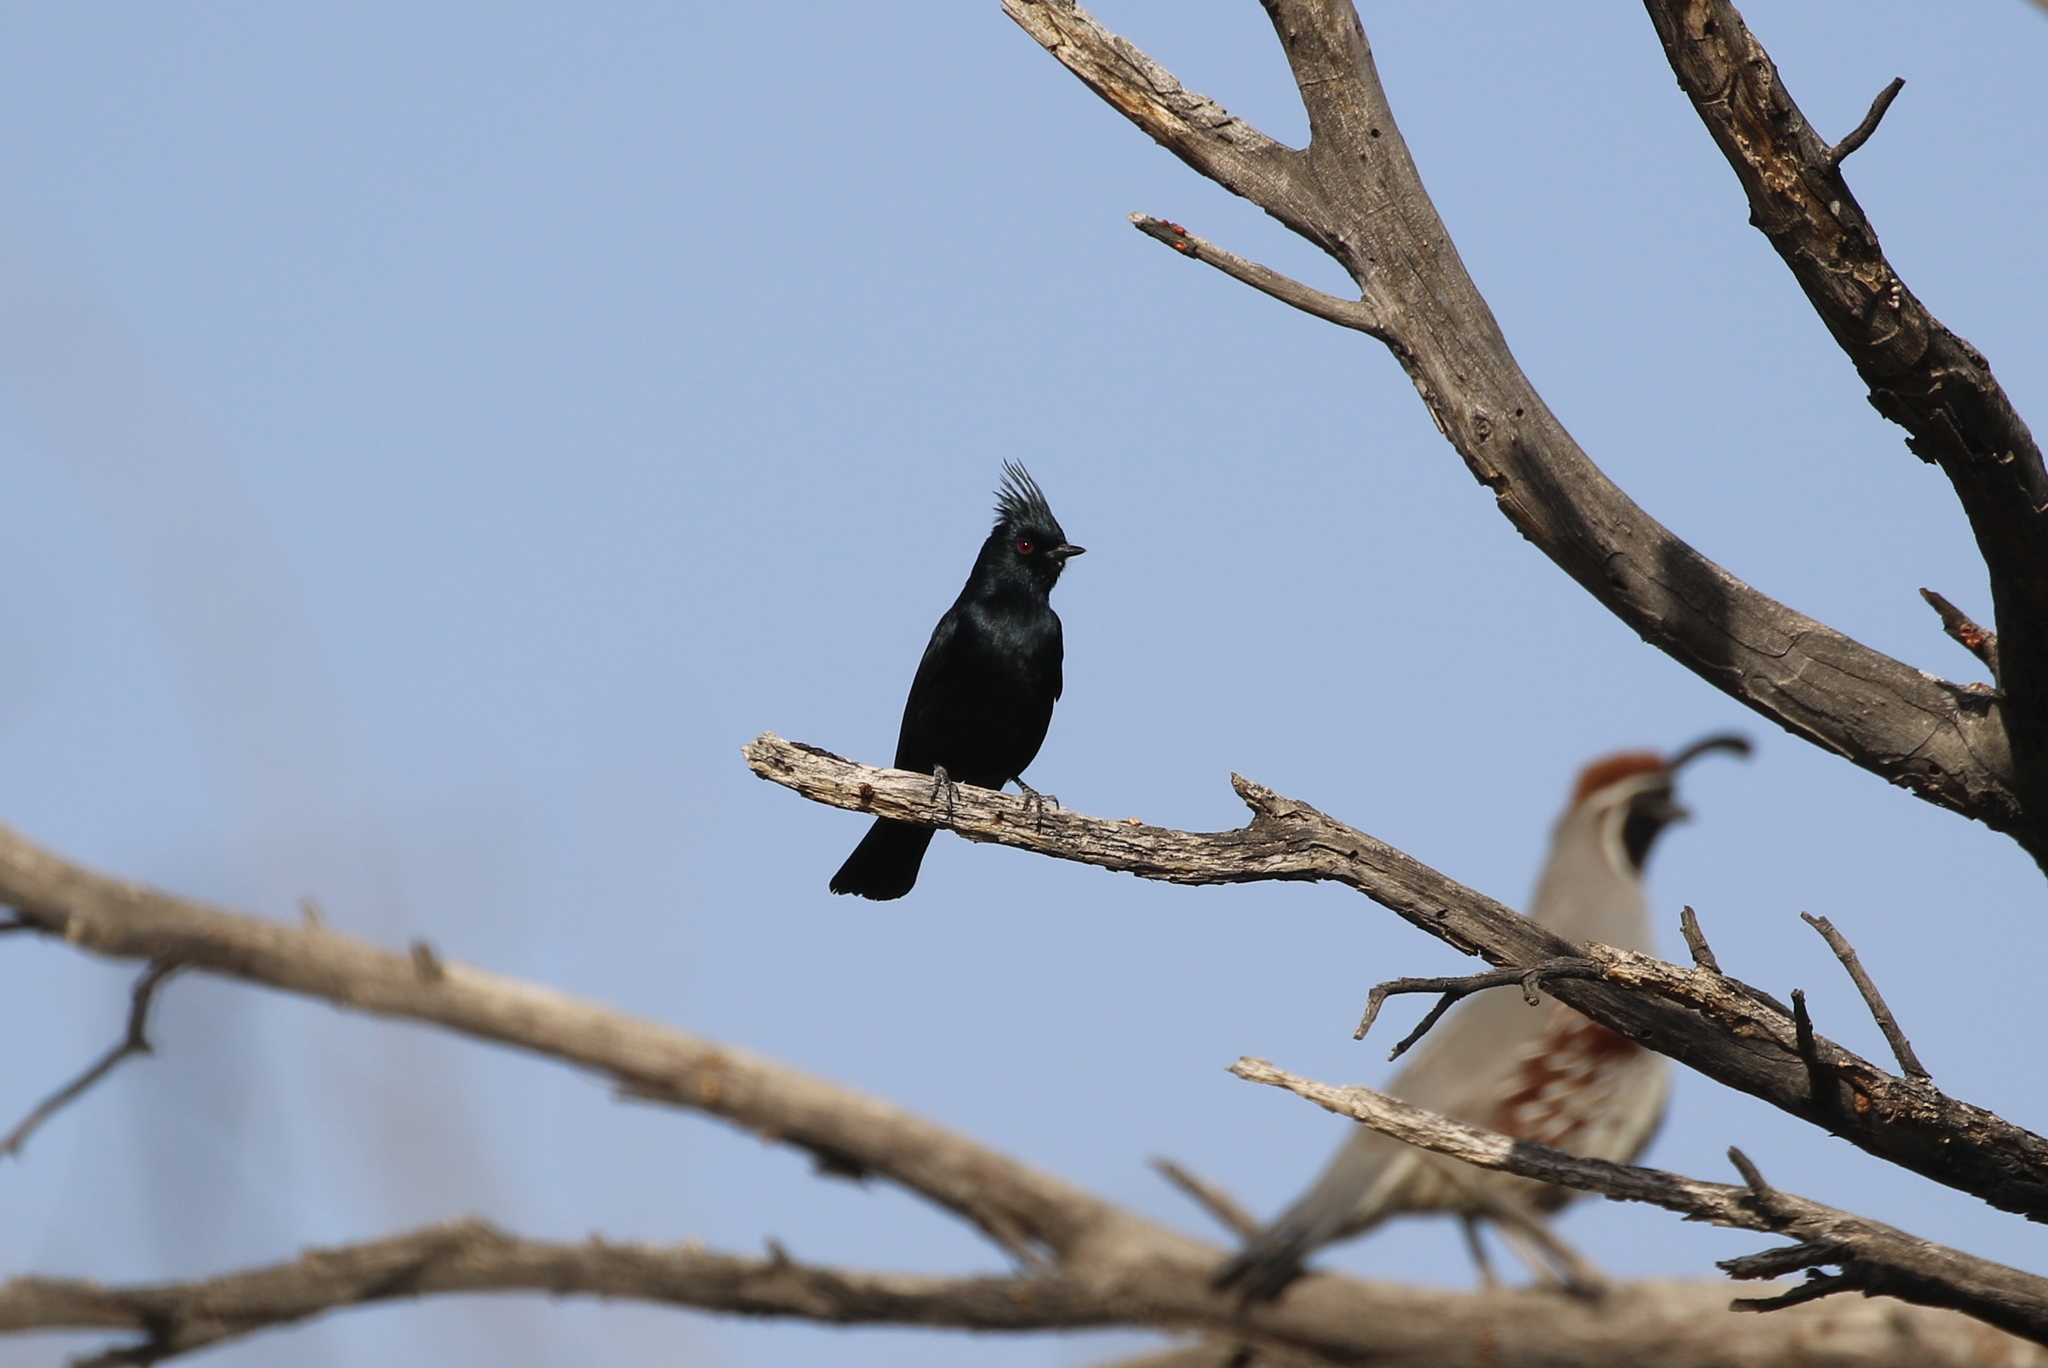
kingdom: Animalia
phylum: Chordata
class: Aves
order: Passeriformes
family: Ptilogonatidae
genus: Phainopepla
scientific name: Phainopepla nitens
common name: Phainopepla
